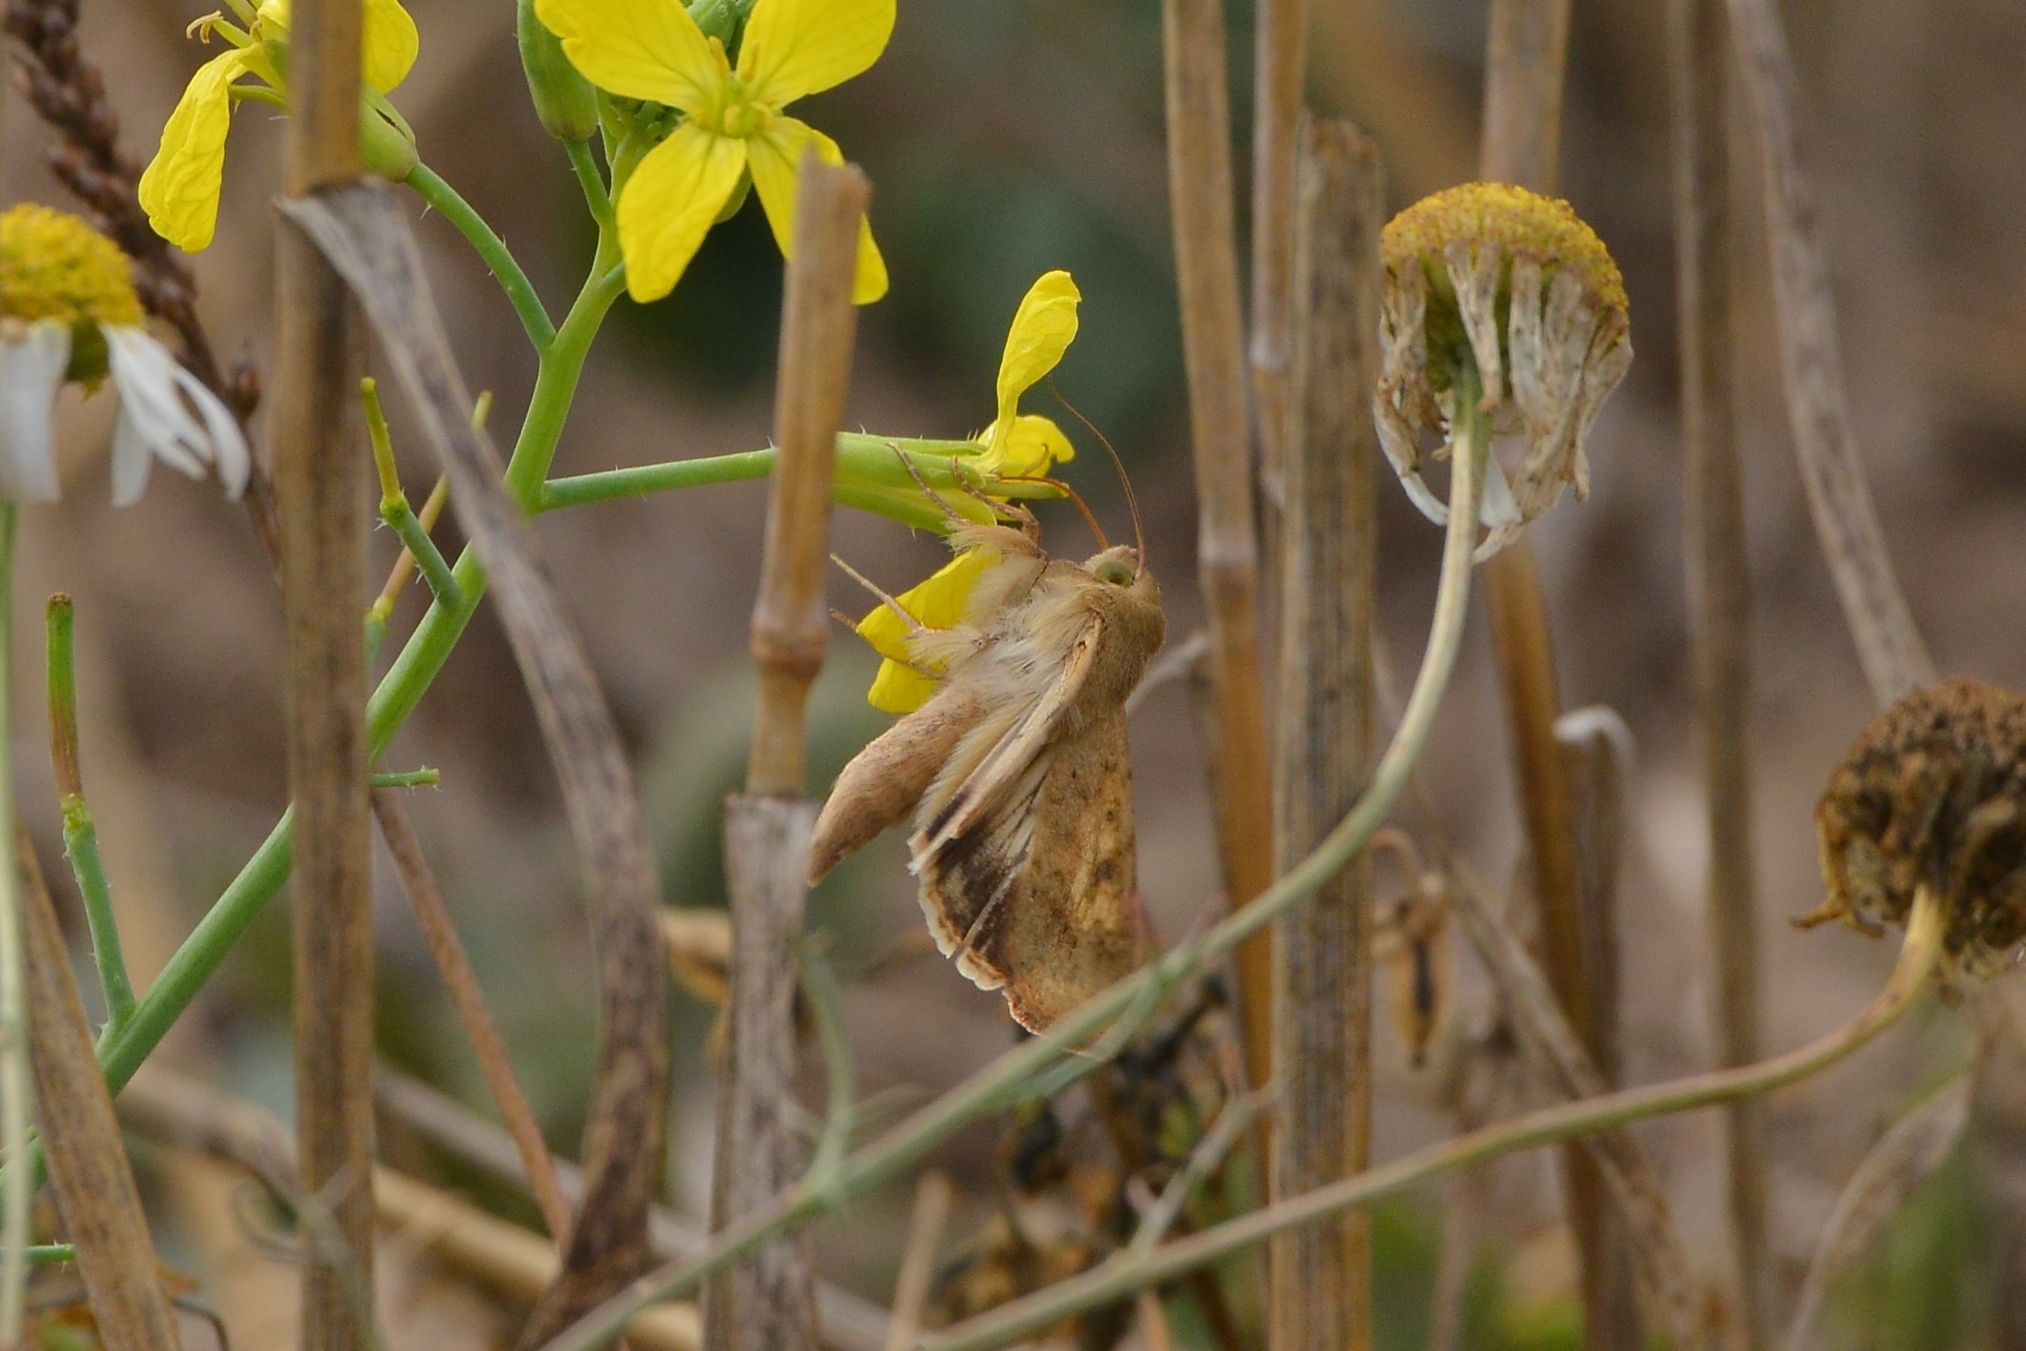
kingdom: Animalia
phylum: Arthropoda
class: Insecta
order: Lepidoptera
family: Noctuidae
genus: Helicoverpa
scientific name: Helicoverpa armigera
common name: Cotton bollworm
